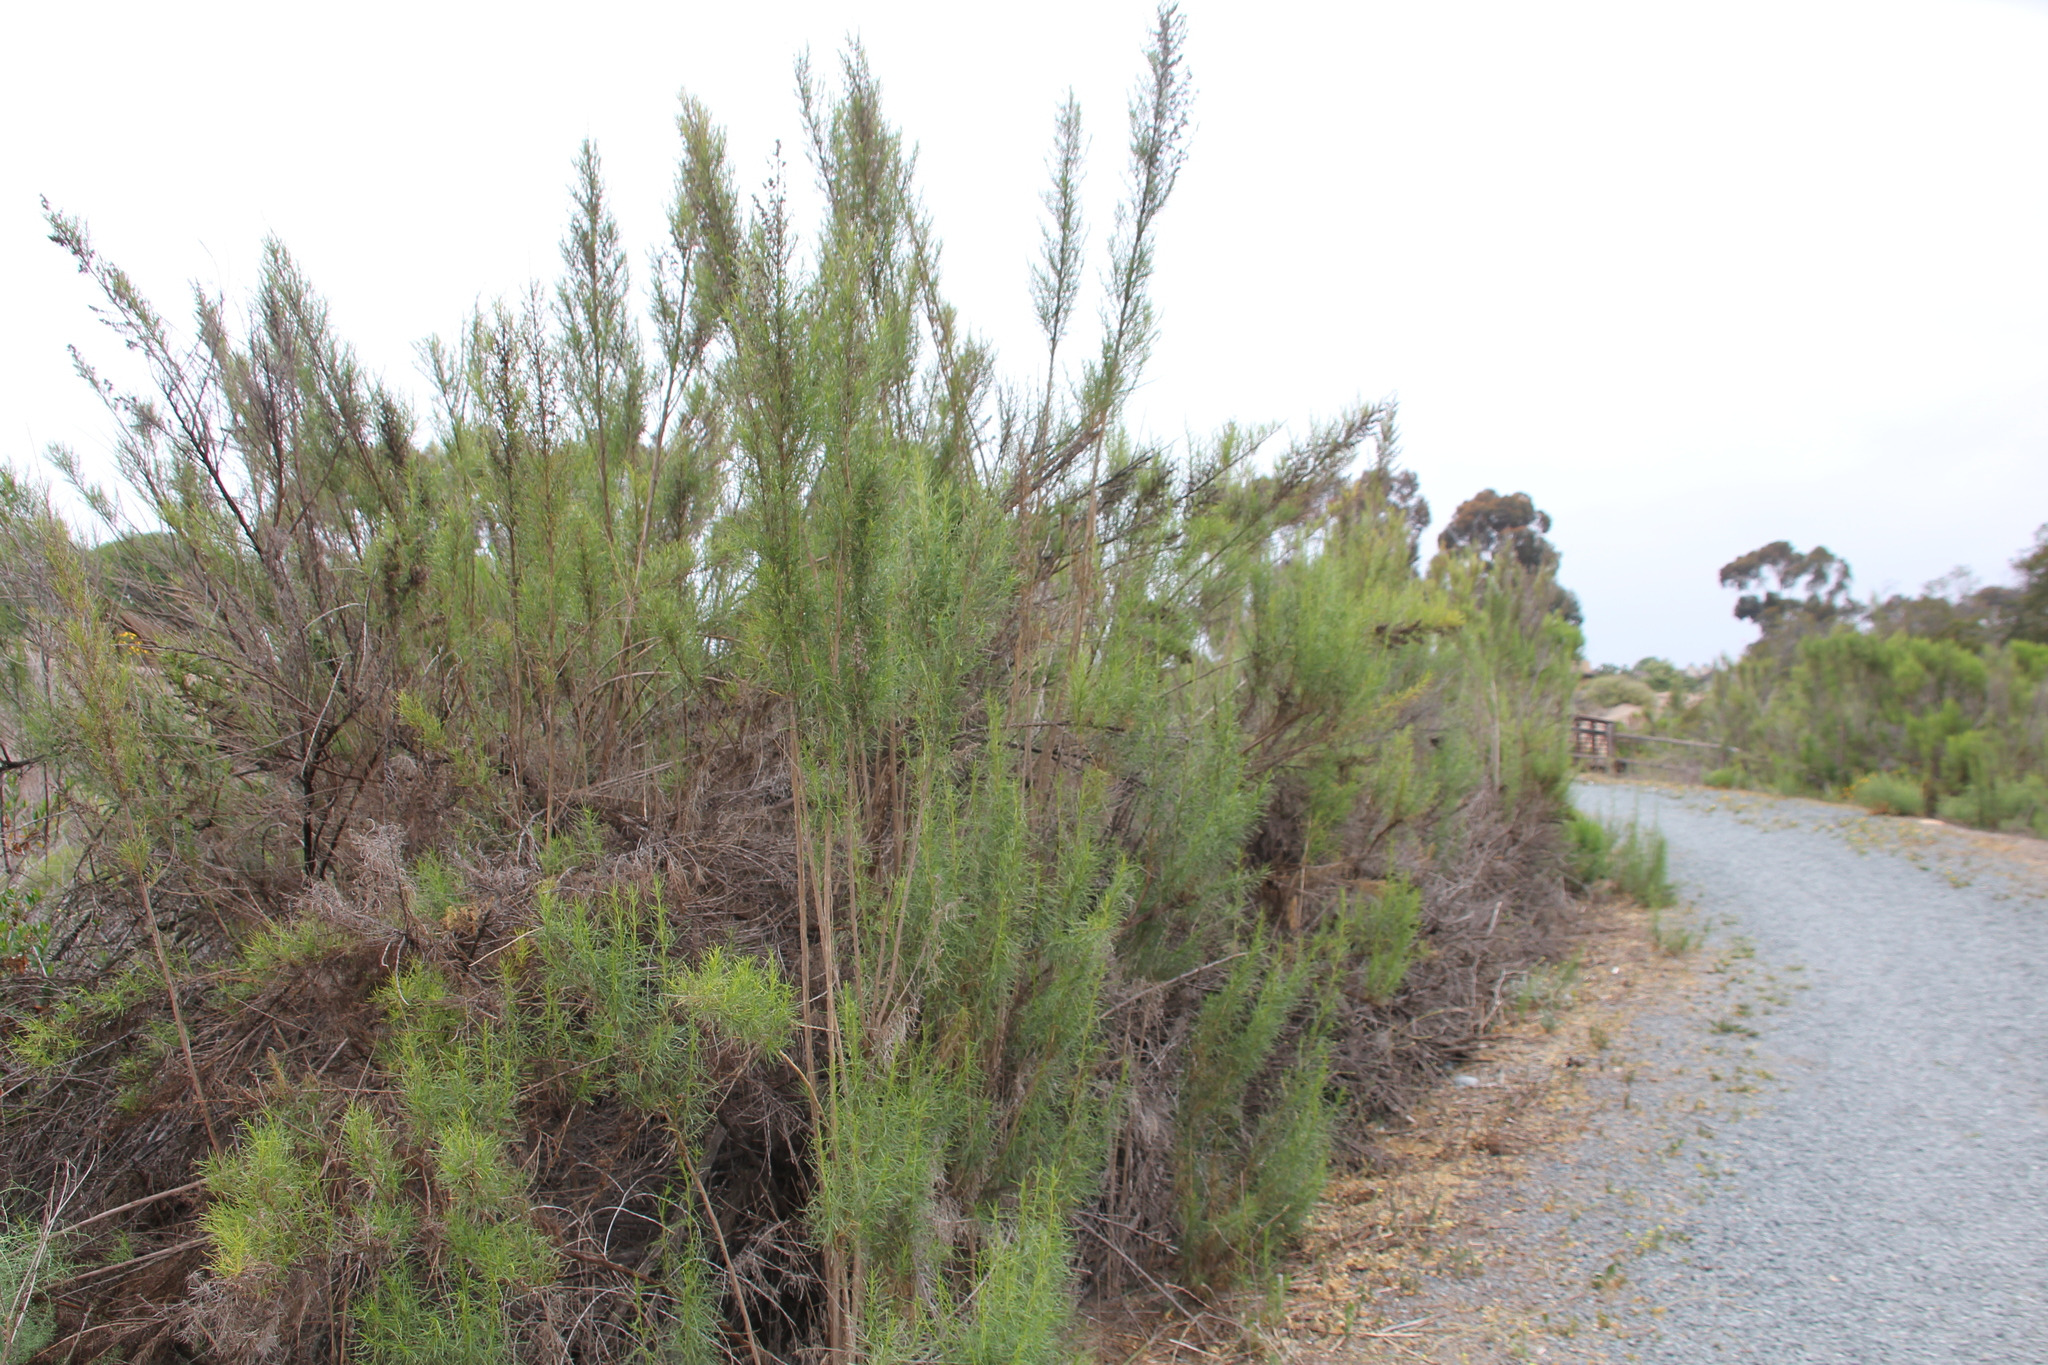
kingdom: Plantae
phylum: Tracheophyta
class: Magnoliopsida
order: Asterales
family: Asteraceae
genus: Ambrosia
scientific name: Ambrosia monogyra
